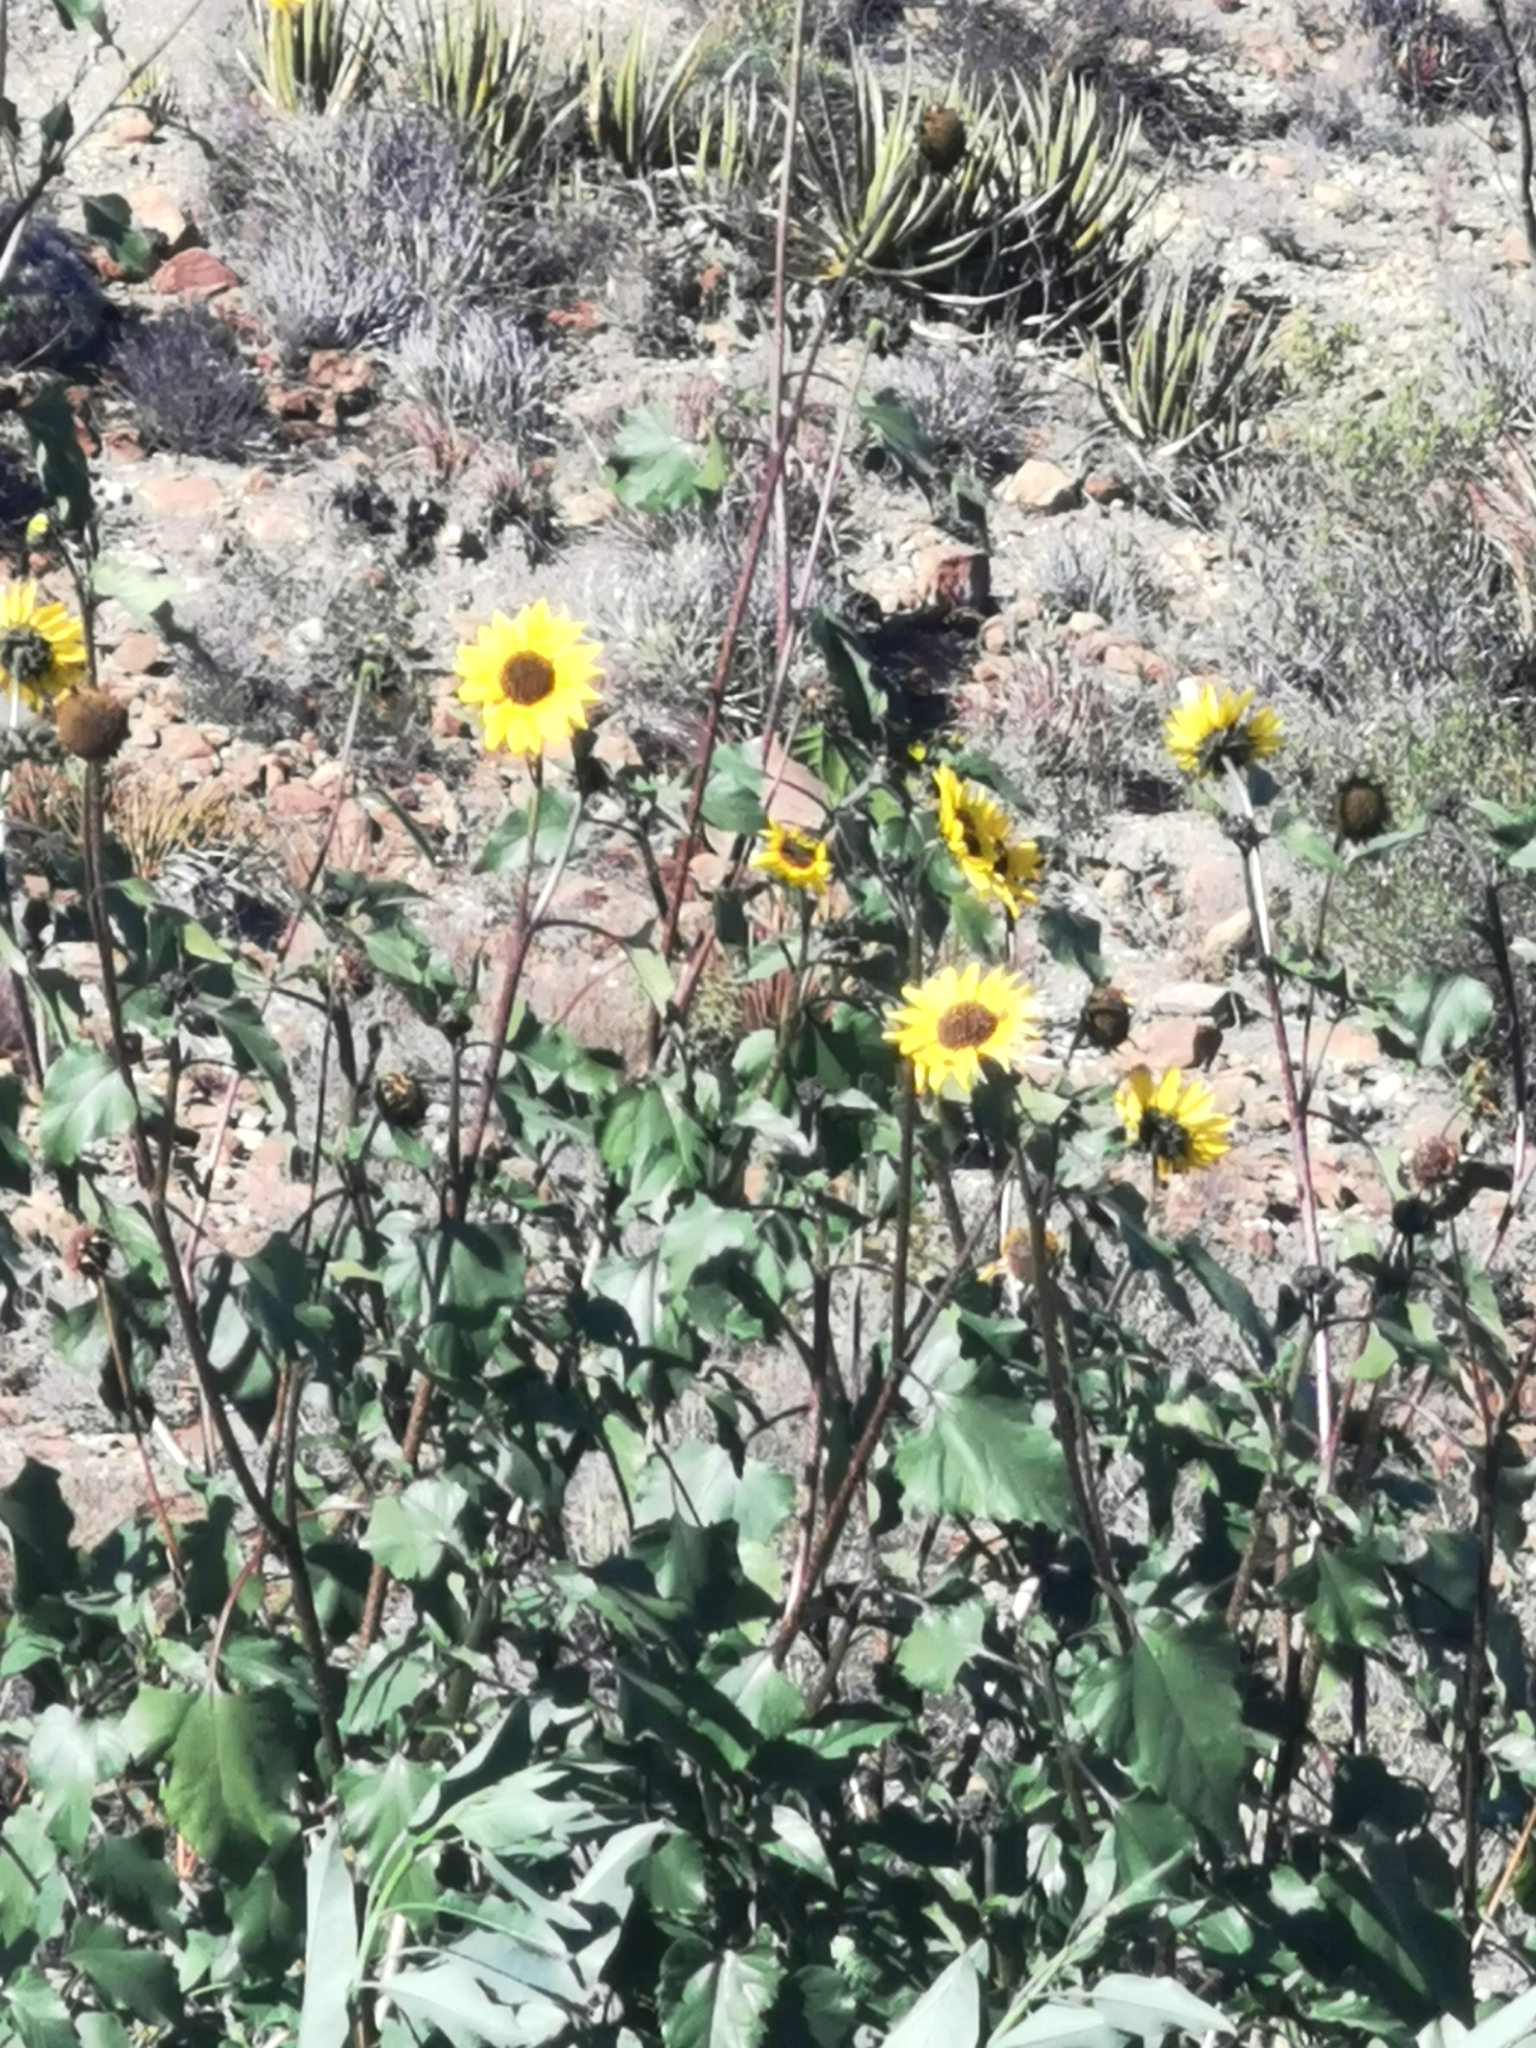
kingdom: Plantae
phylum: Tracheophyta
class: Magnoliopsida
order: Asterales
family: Asteraceae
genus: Helianthus
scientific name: Helianthus annuus
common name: Sunflower
